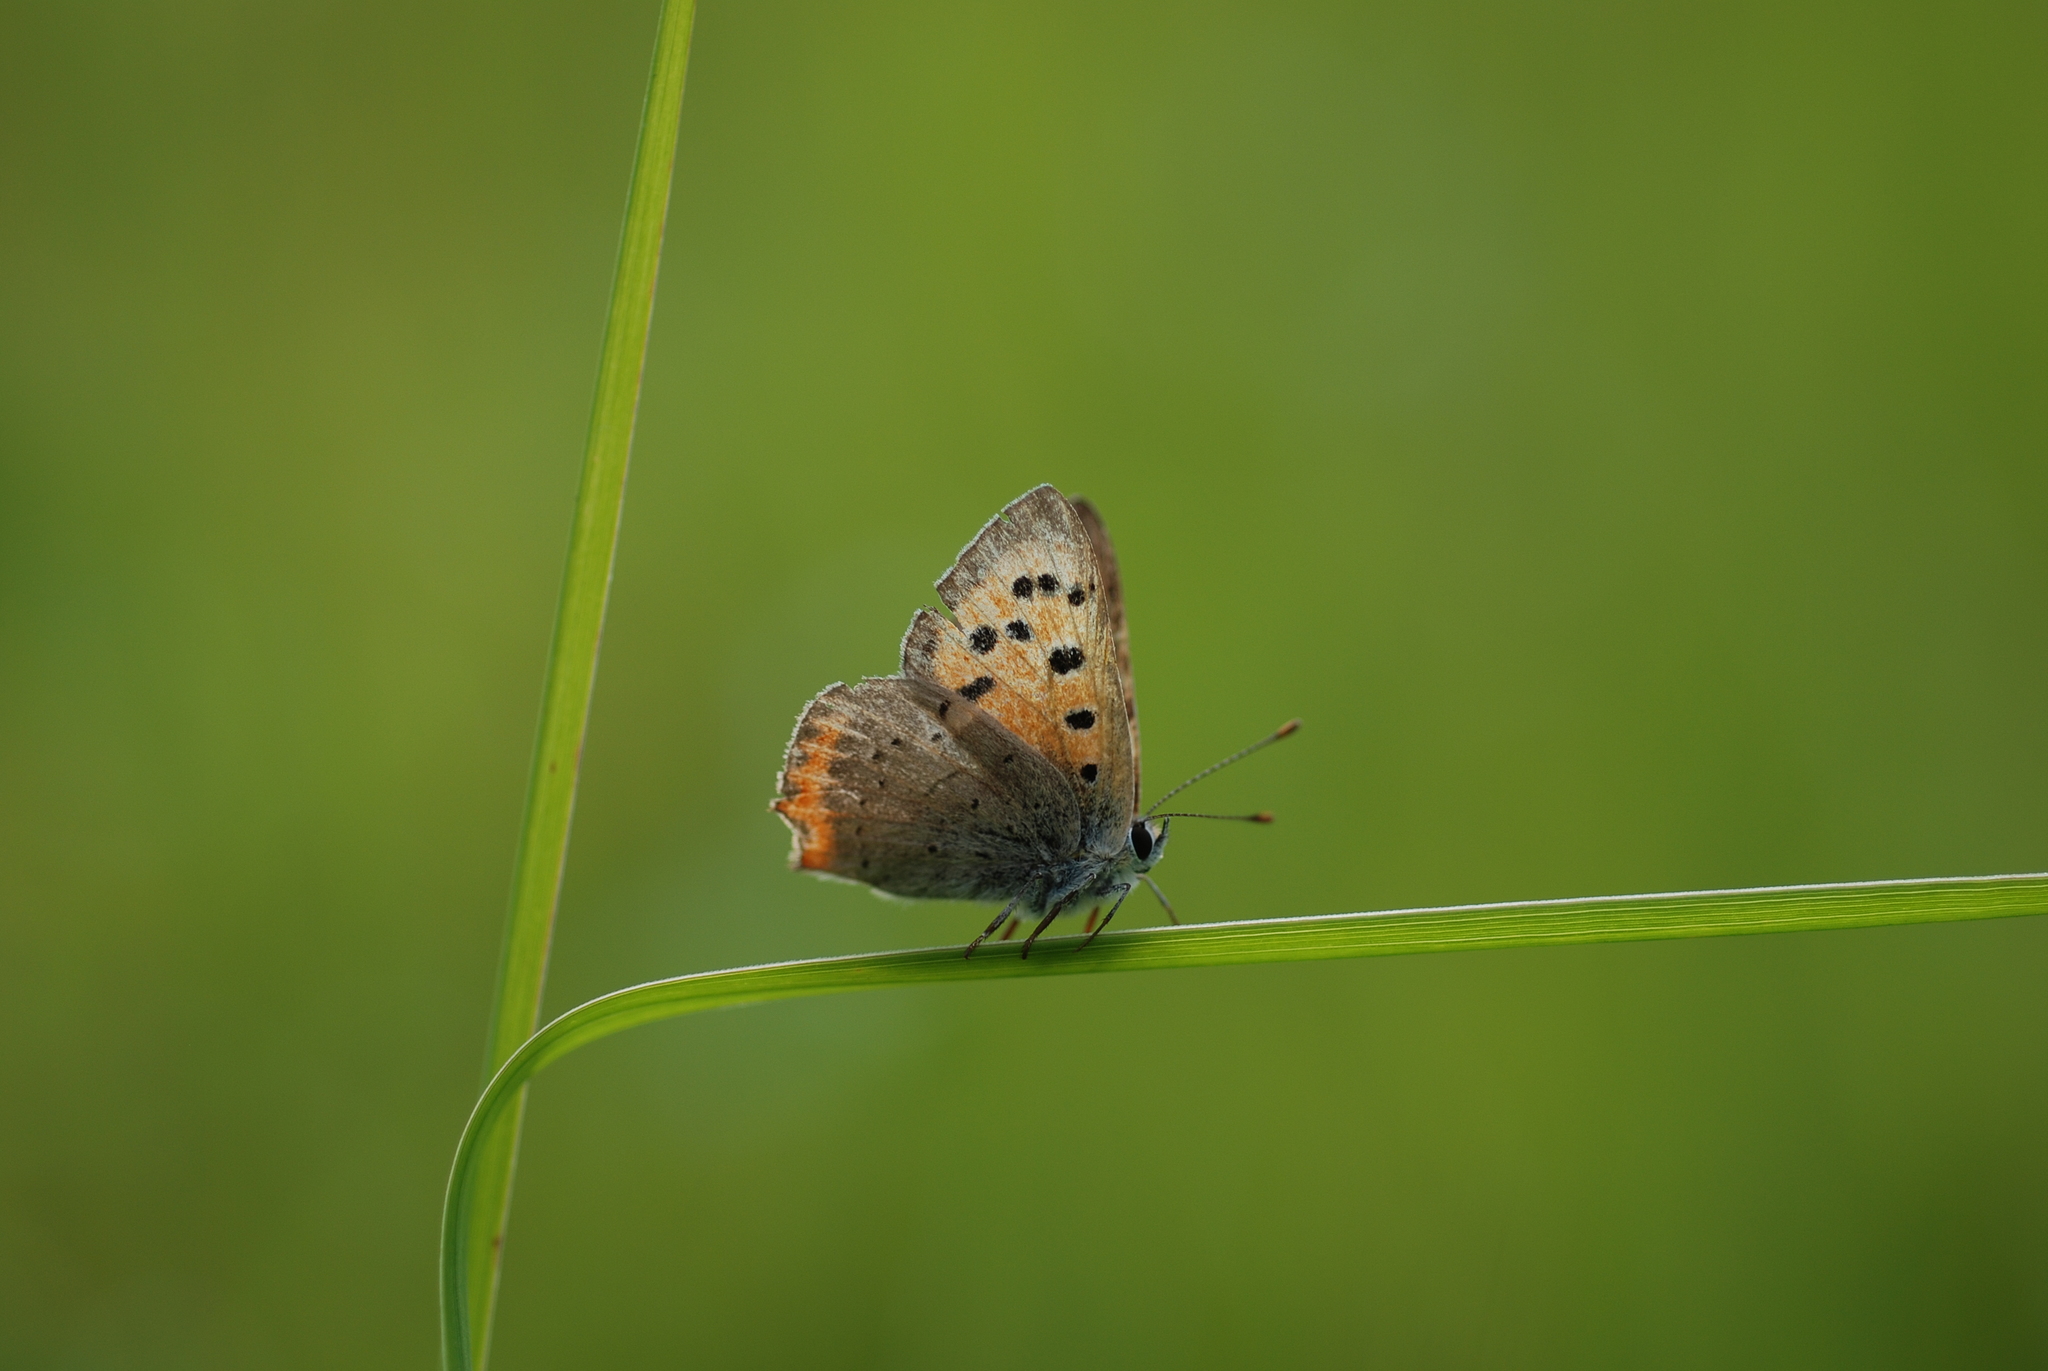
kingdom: Animalia
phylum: Arthropoda
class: Insecta
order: Lepidoptera
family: Lycaenidae
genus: Lycaena
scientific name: Lycaena phlaeas
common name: Small copper
